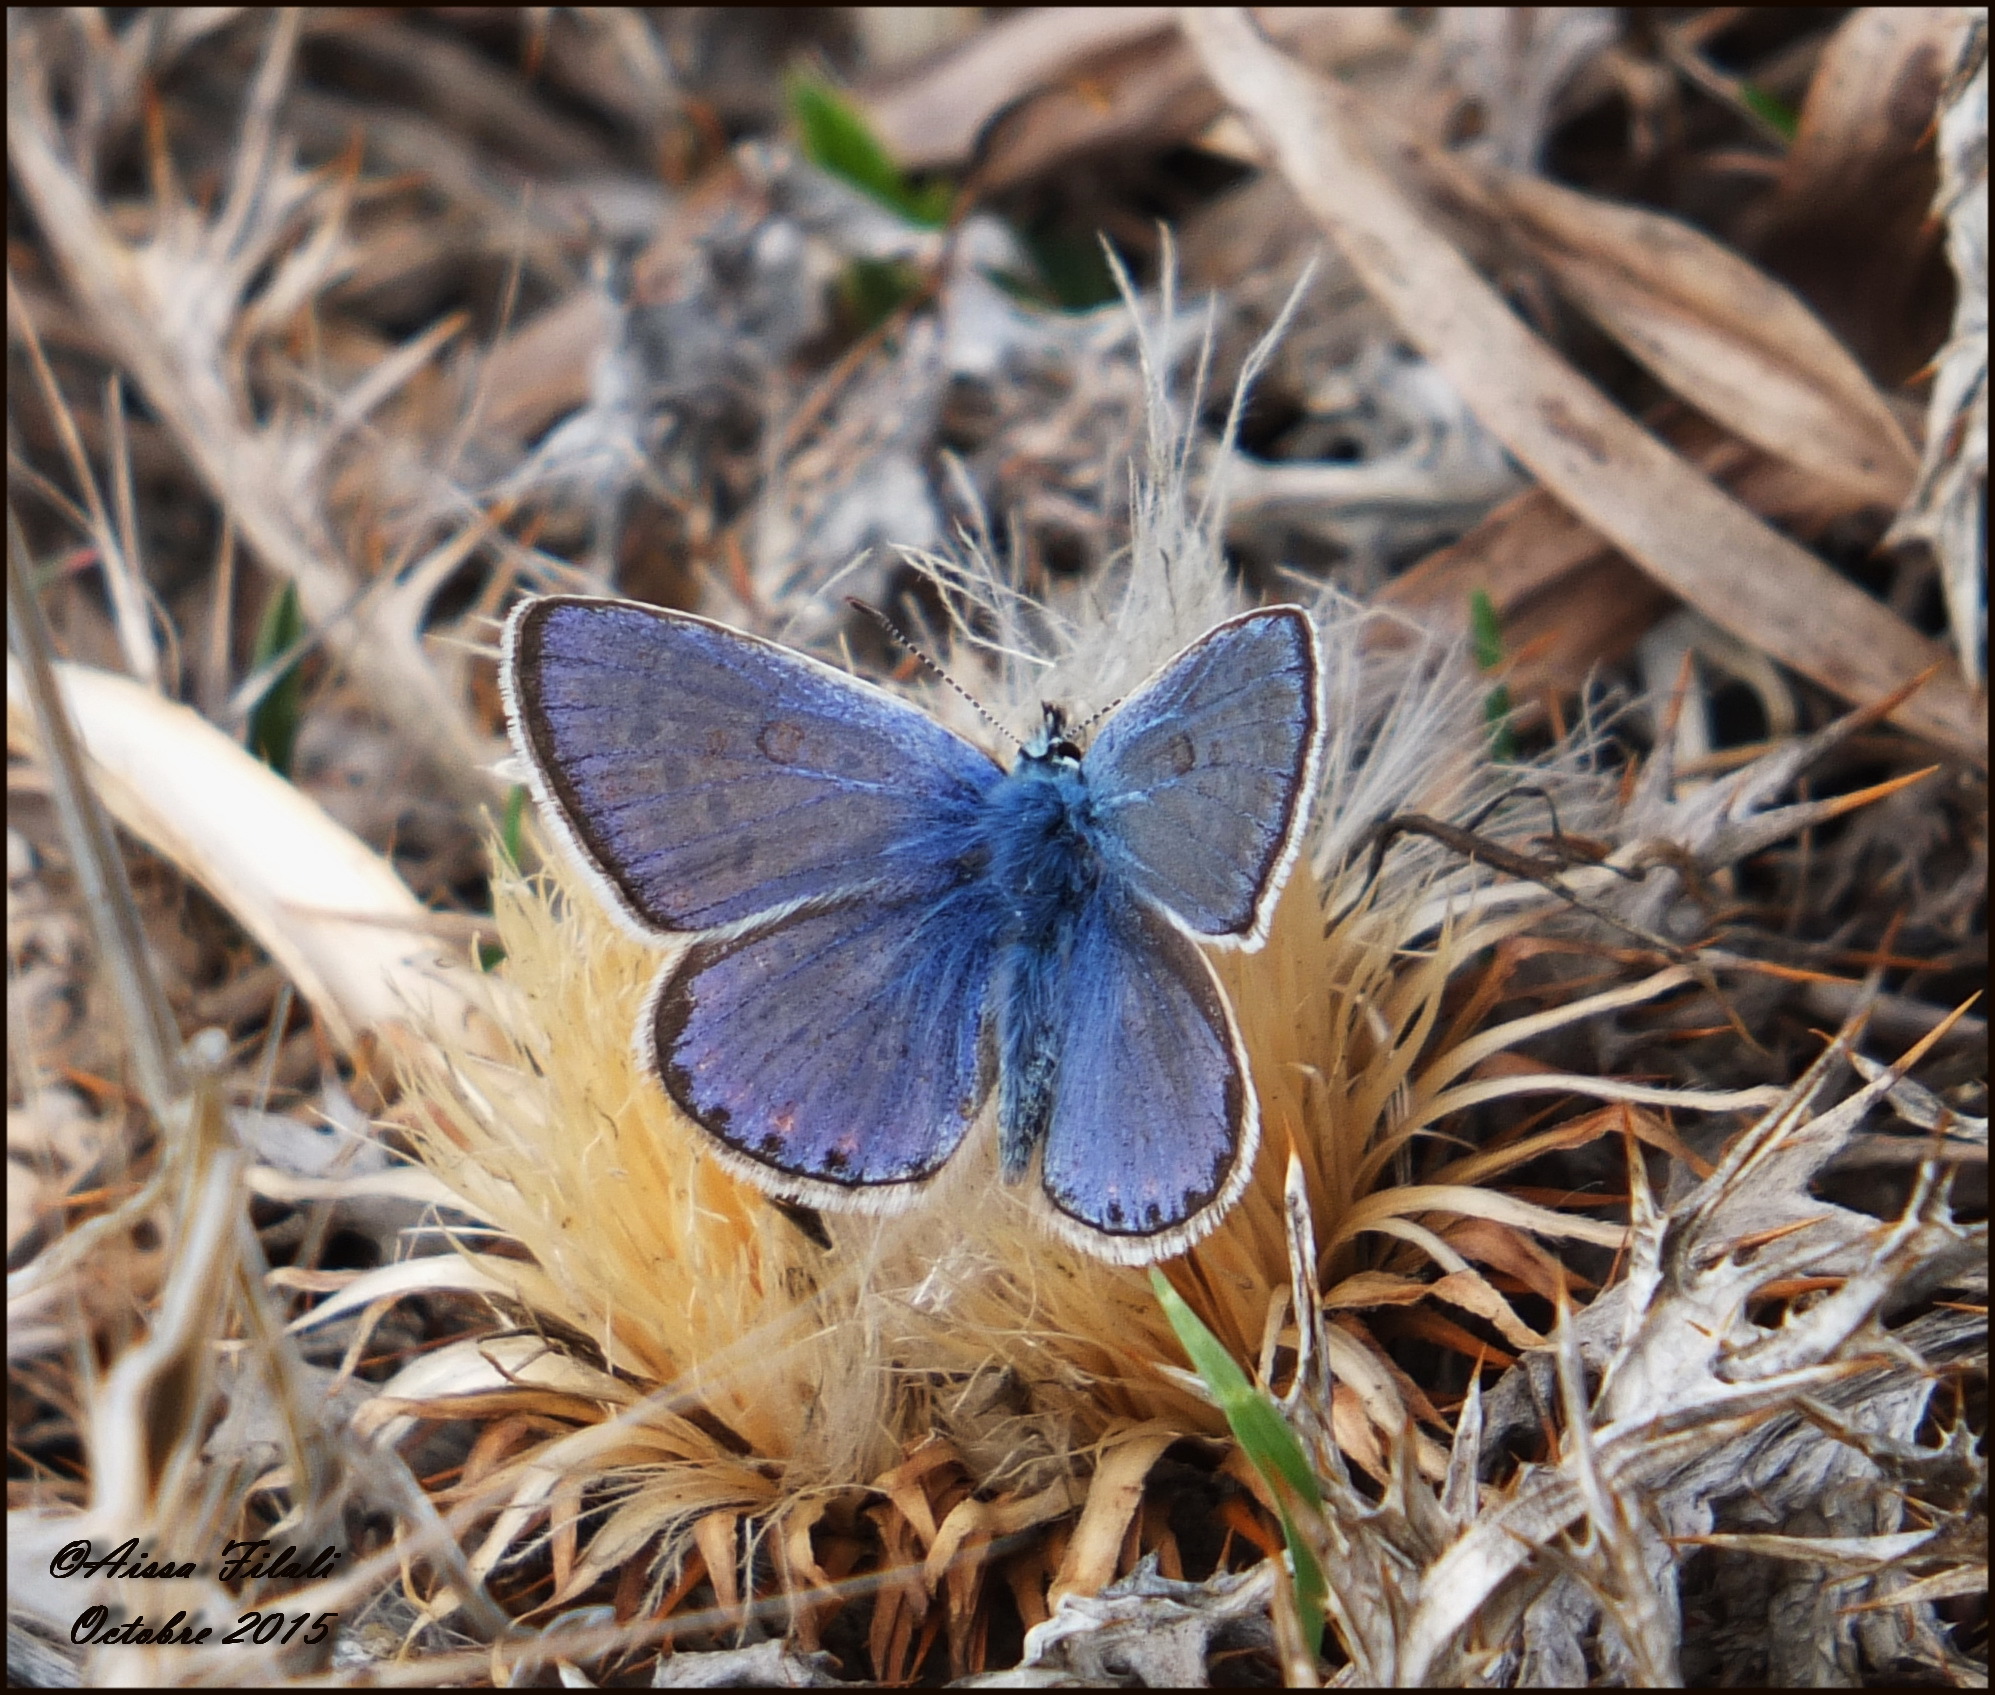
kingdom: Animalia
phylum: Arthropoda
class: Insecta
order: Lepidoptera
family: Lycaenidae
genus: Polyommatus
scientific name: Polyommatus celina
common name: Austaut's blue
